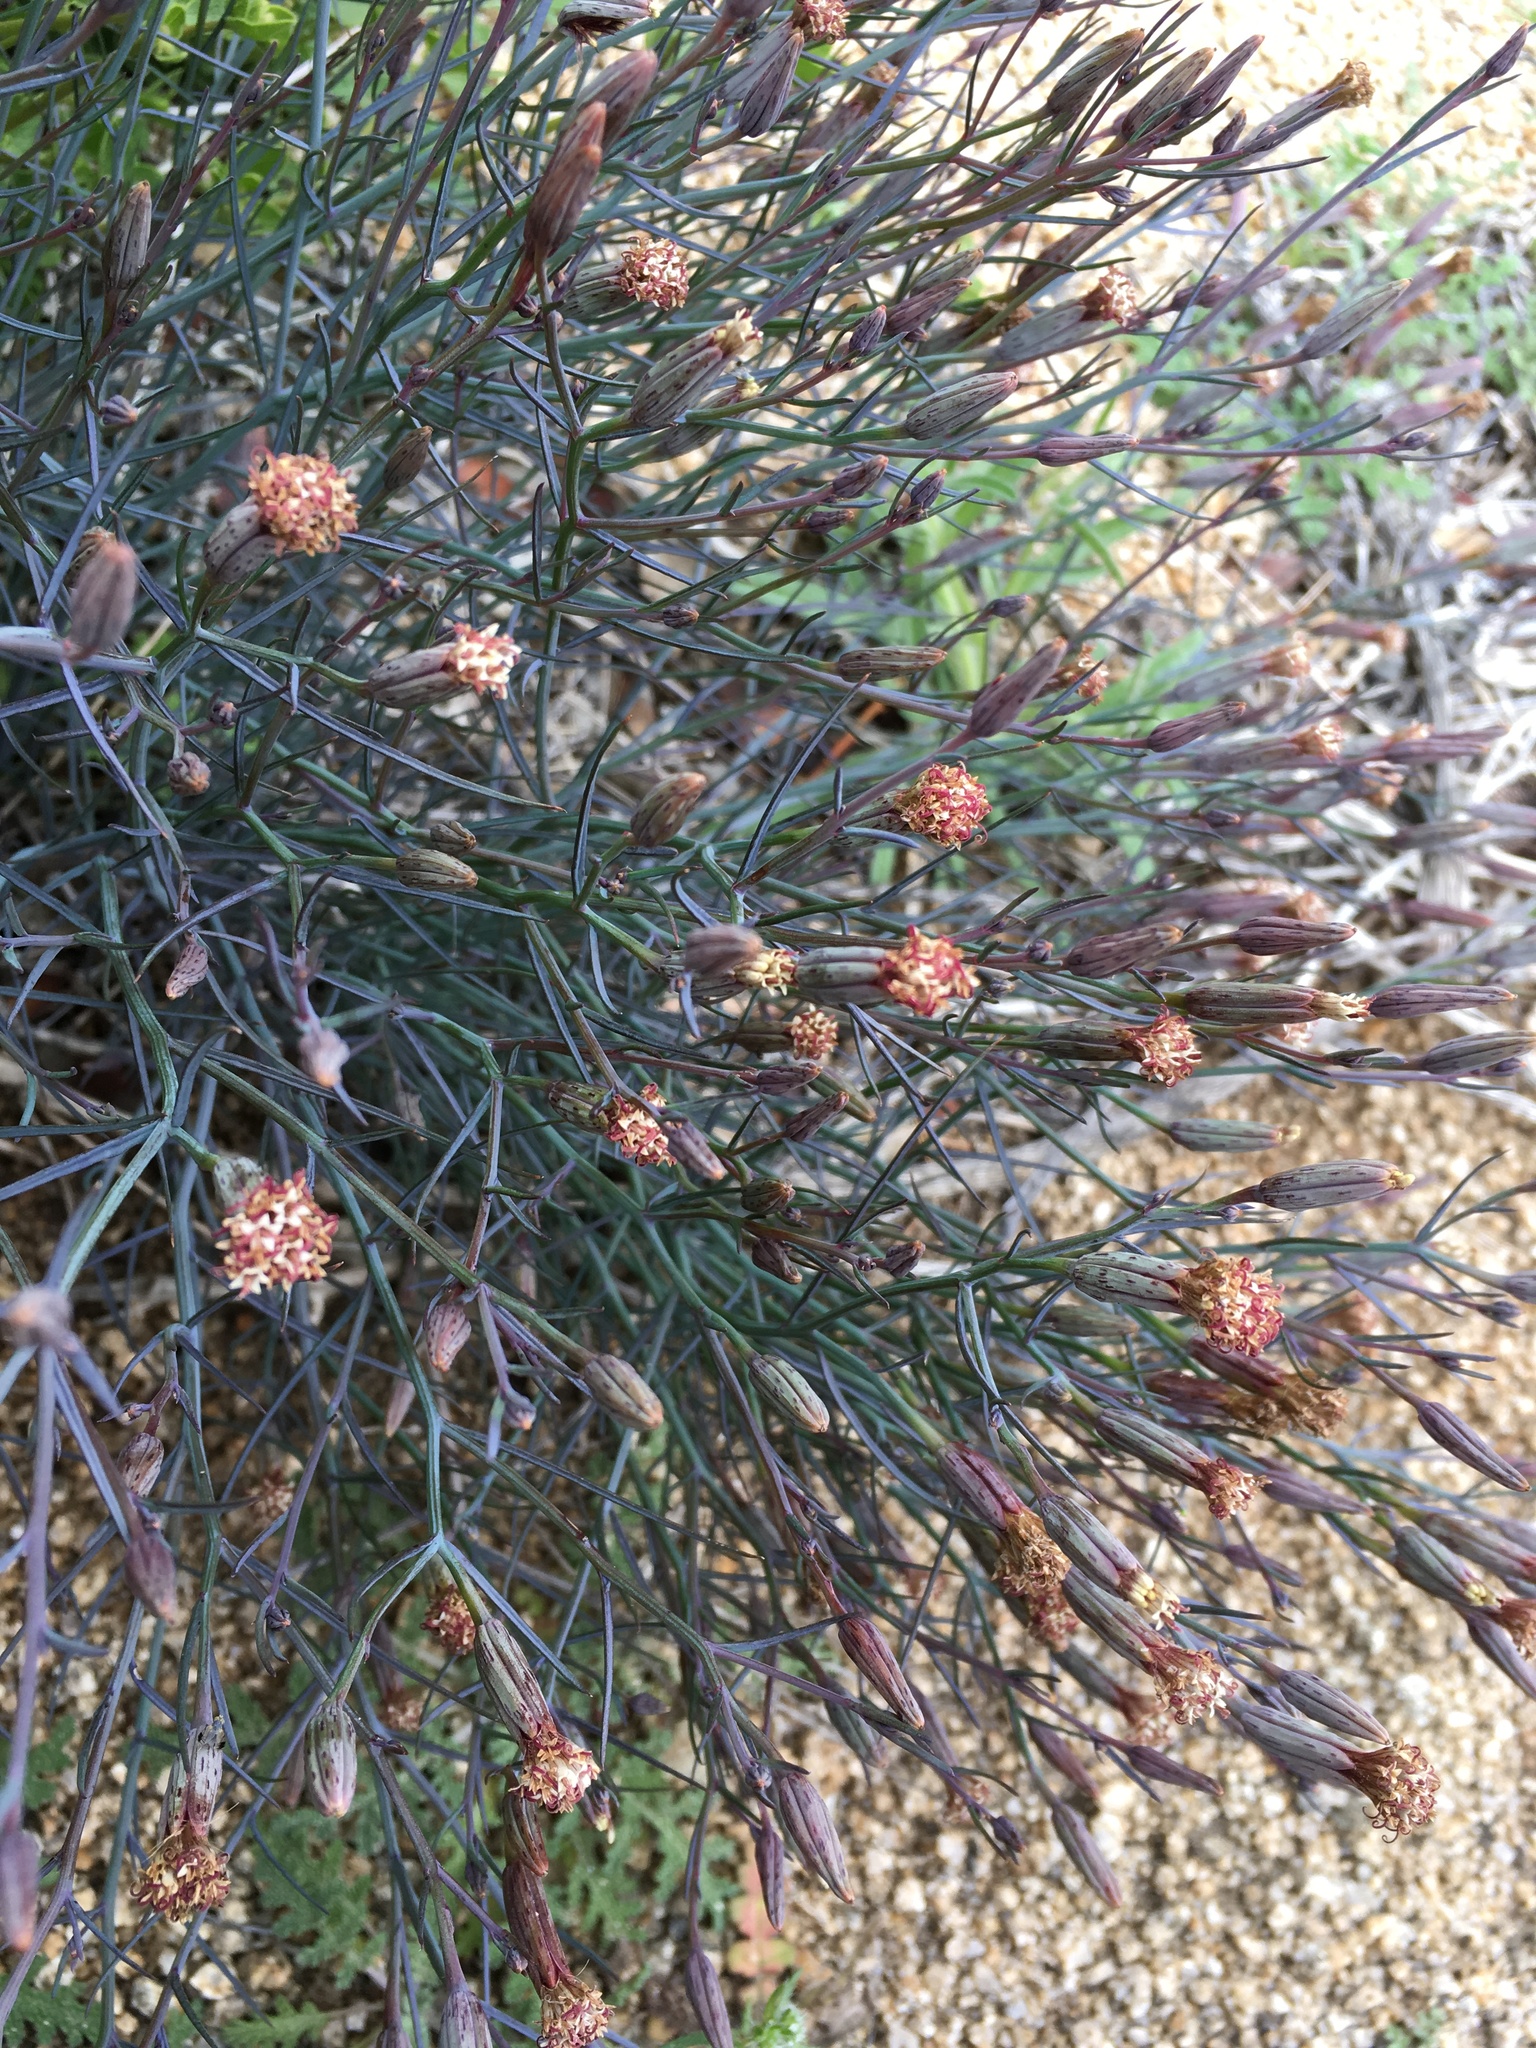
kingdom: Plantae
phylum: Tracheophyta
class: Magnoliopsida
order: Asterales
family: Asteraceae
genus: Porophyllum
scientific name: Porophyllum gracile
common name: Odora
